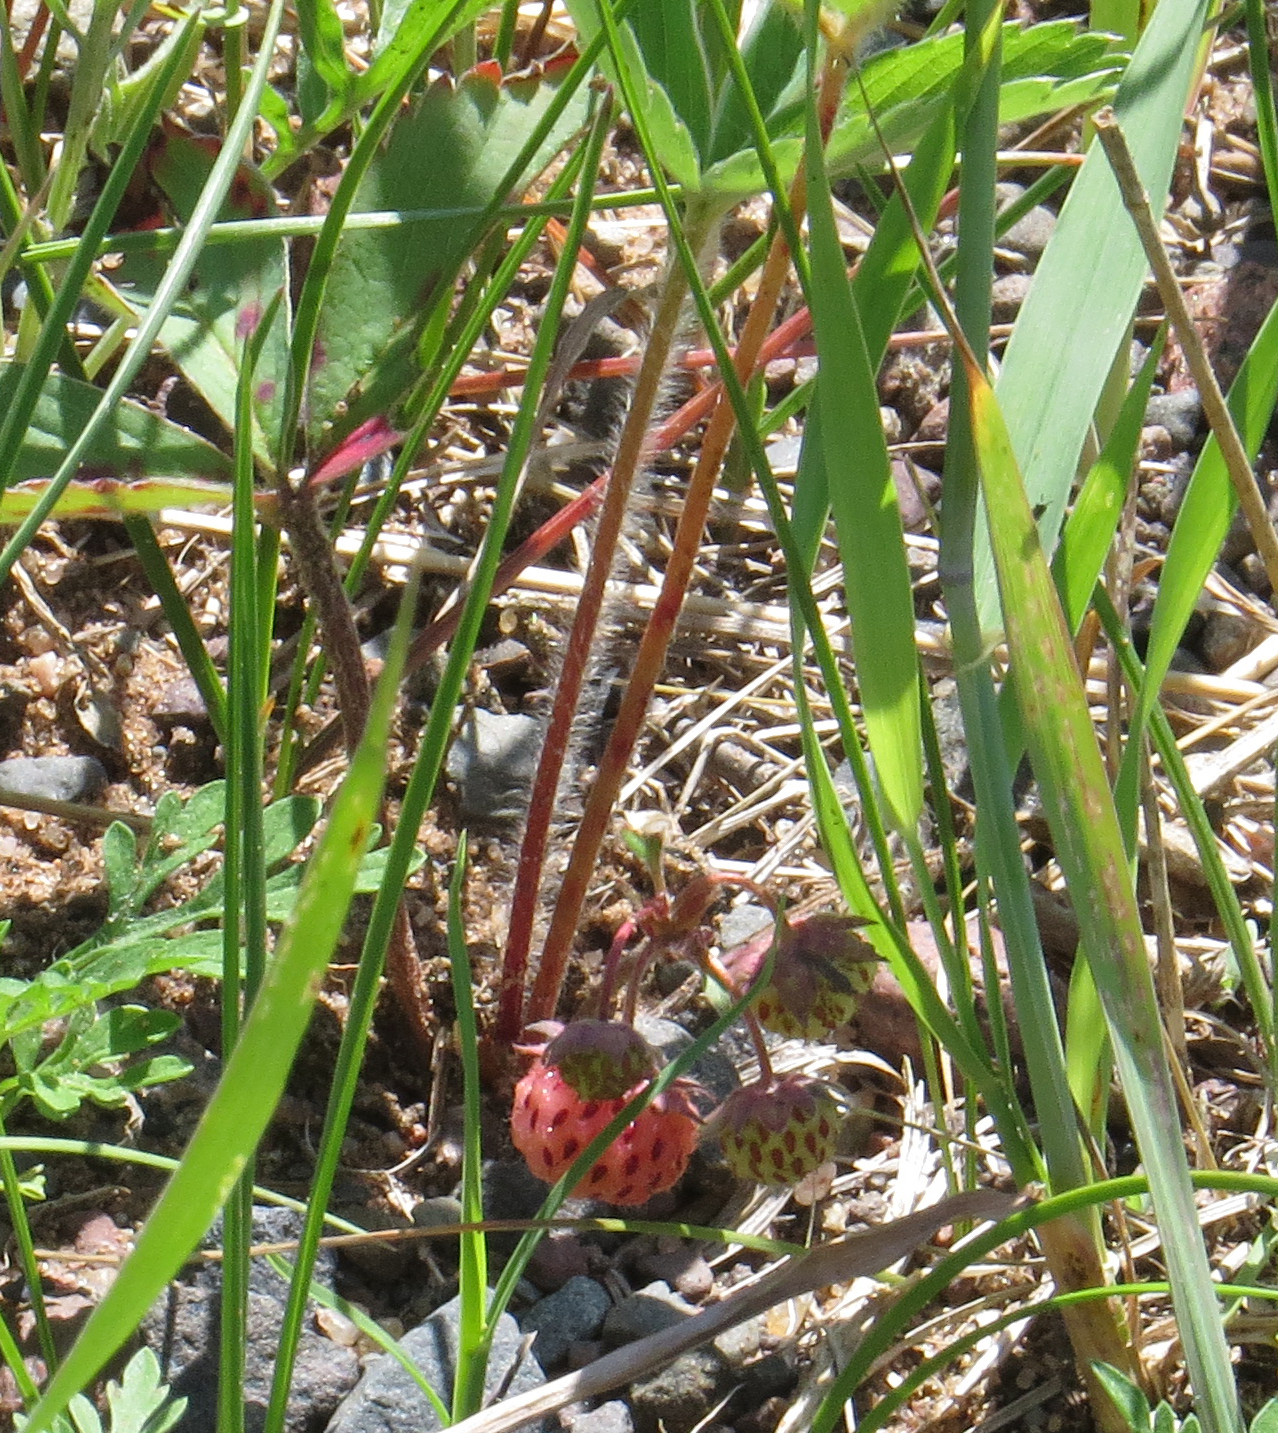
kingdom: Plantae
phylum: Tracheophyta
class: Magnoliopsida
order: Rosales
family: Rosaceae
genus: Fragaria
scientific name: Fragaria virginiana
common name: Thickleaved wild strawberry
